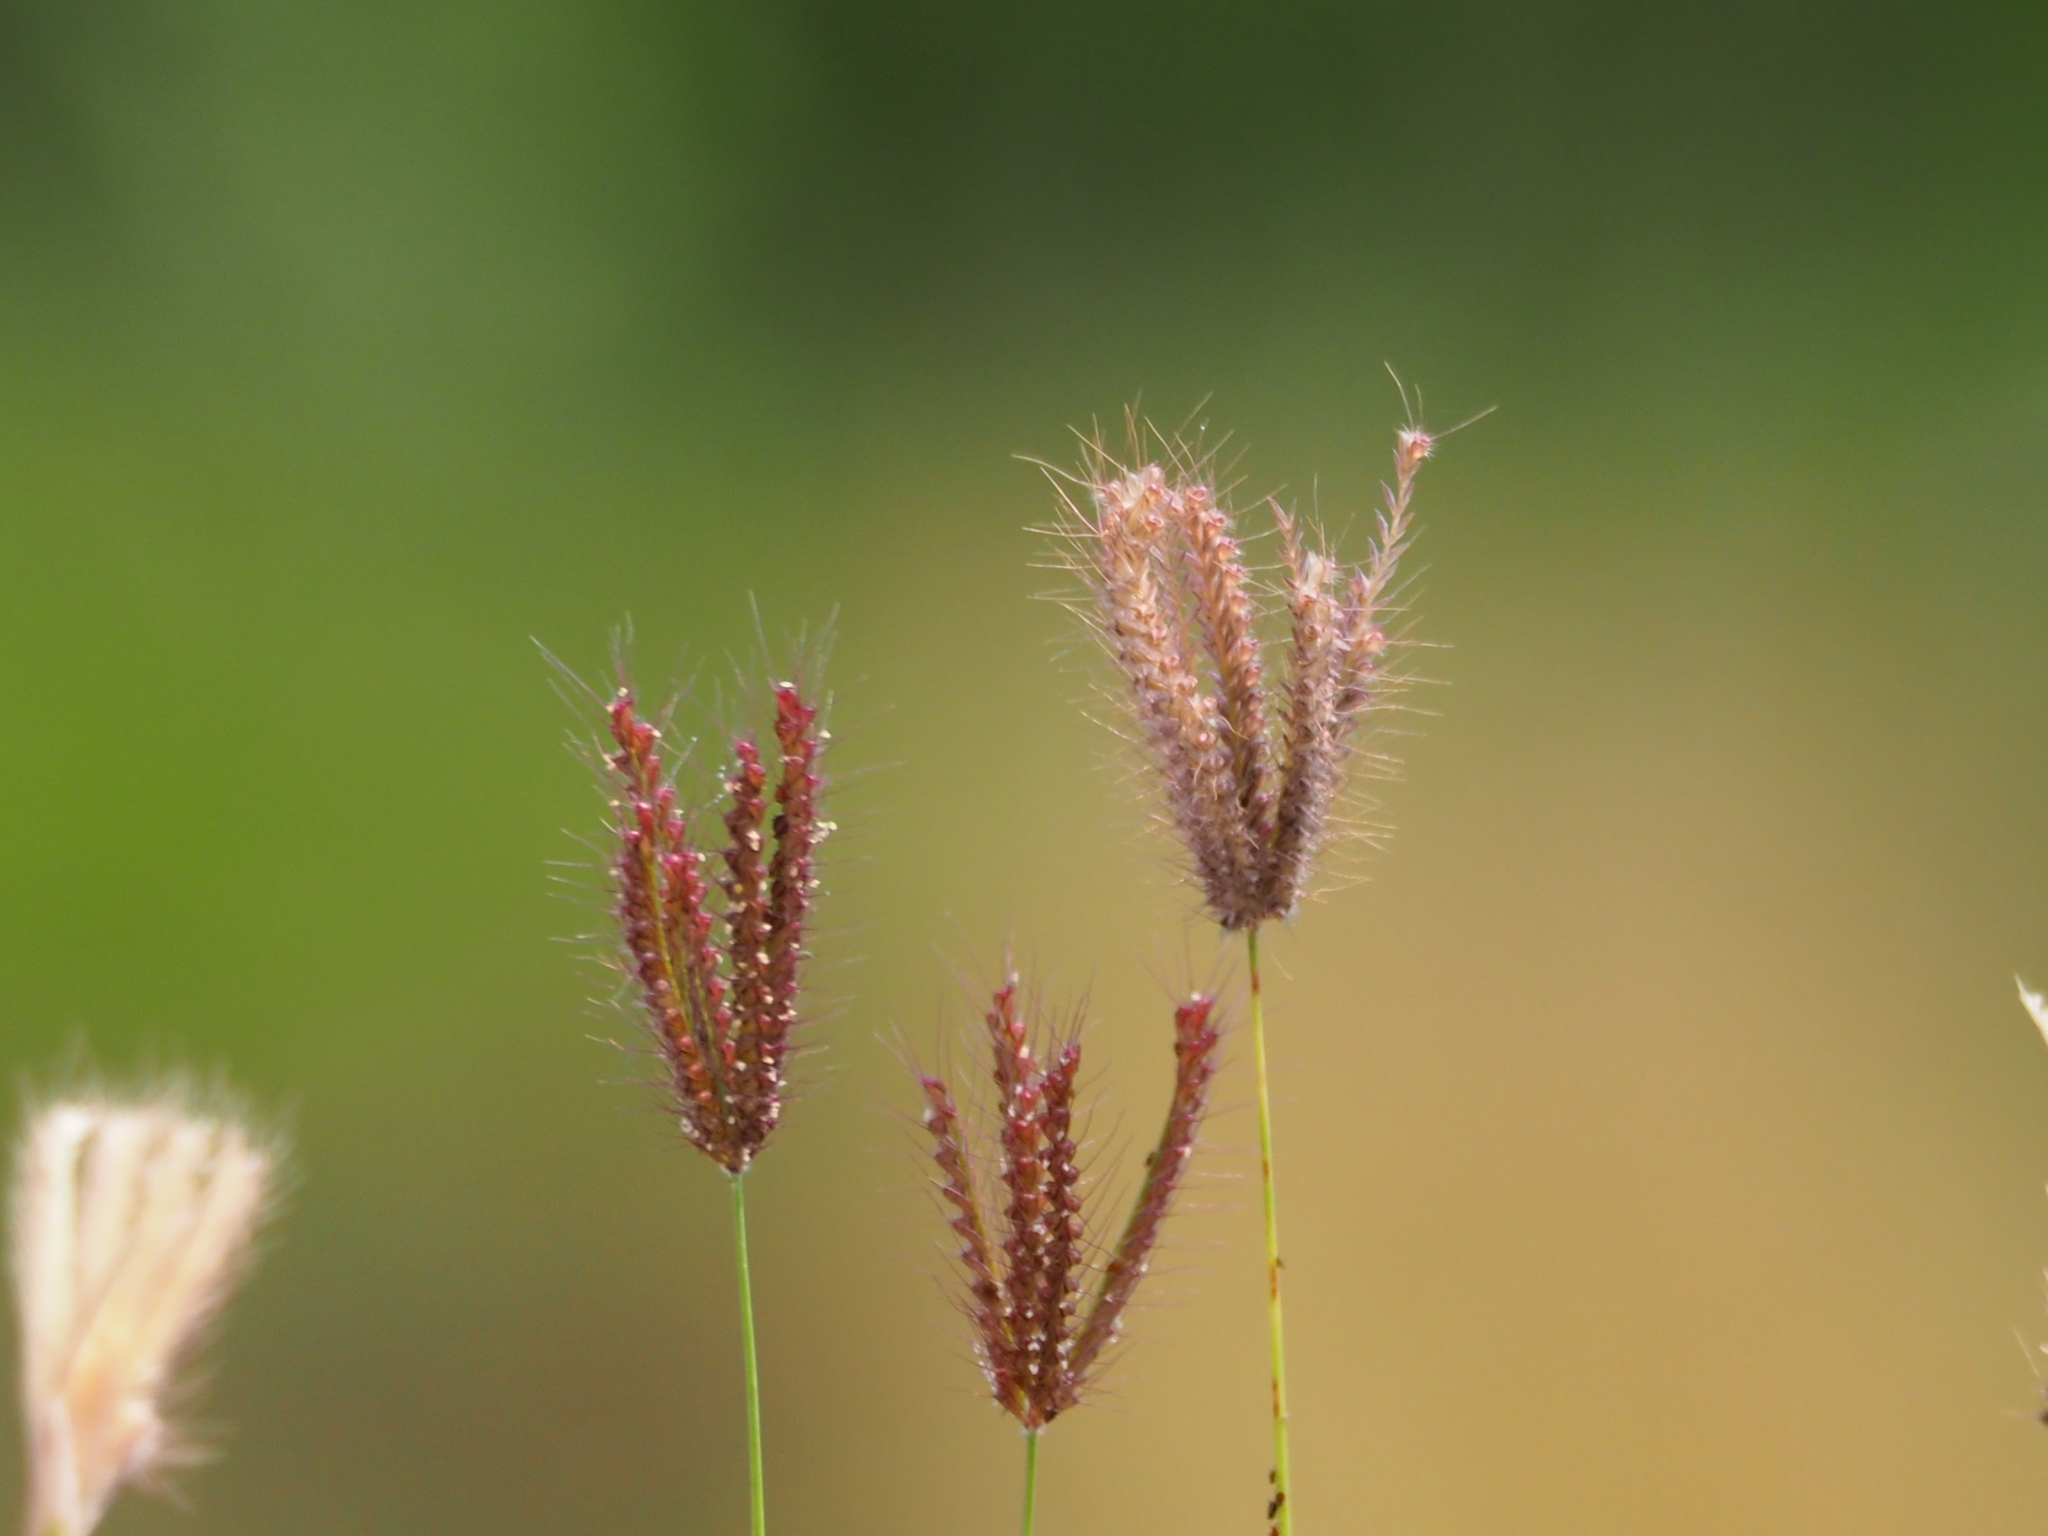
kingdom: Plantae
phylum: Tracheophyta
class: Liliopsida
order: Poales
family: Poaceae
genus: Chloris
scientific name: Chloris barbata
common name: Swollen fingergrass
